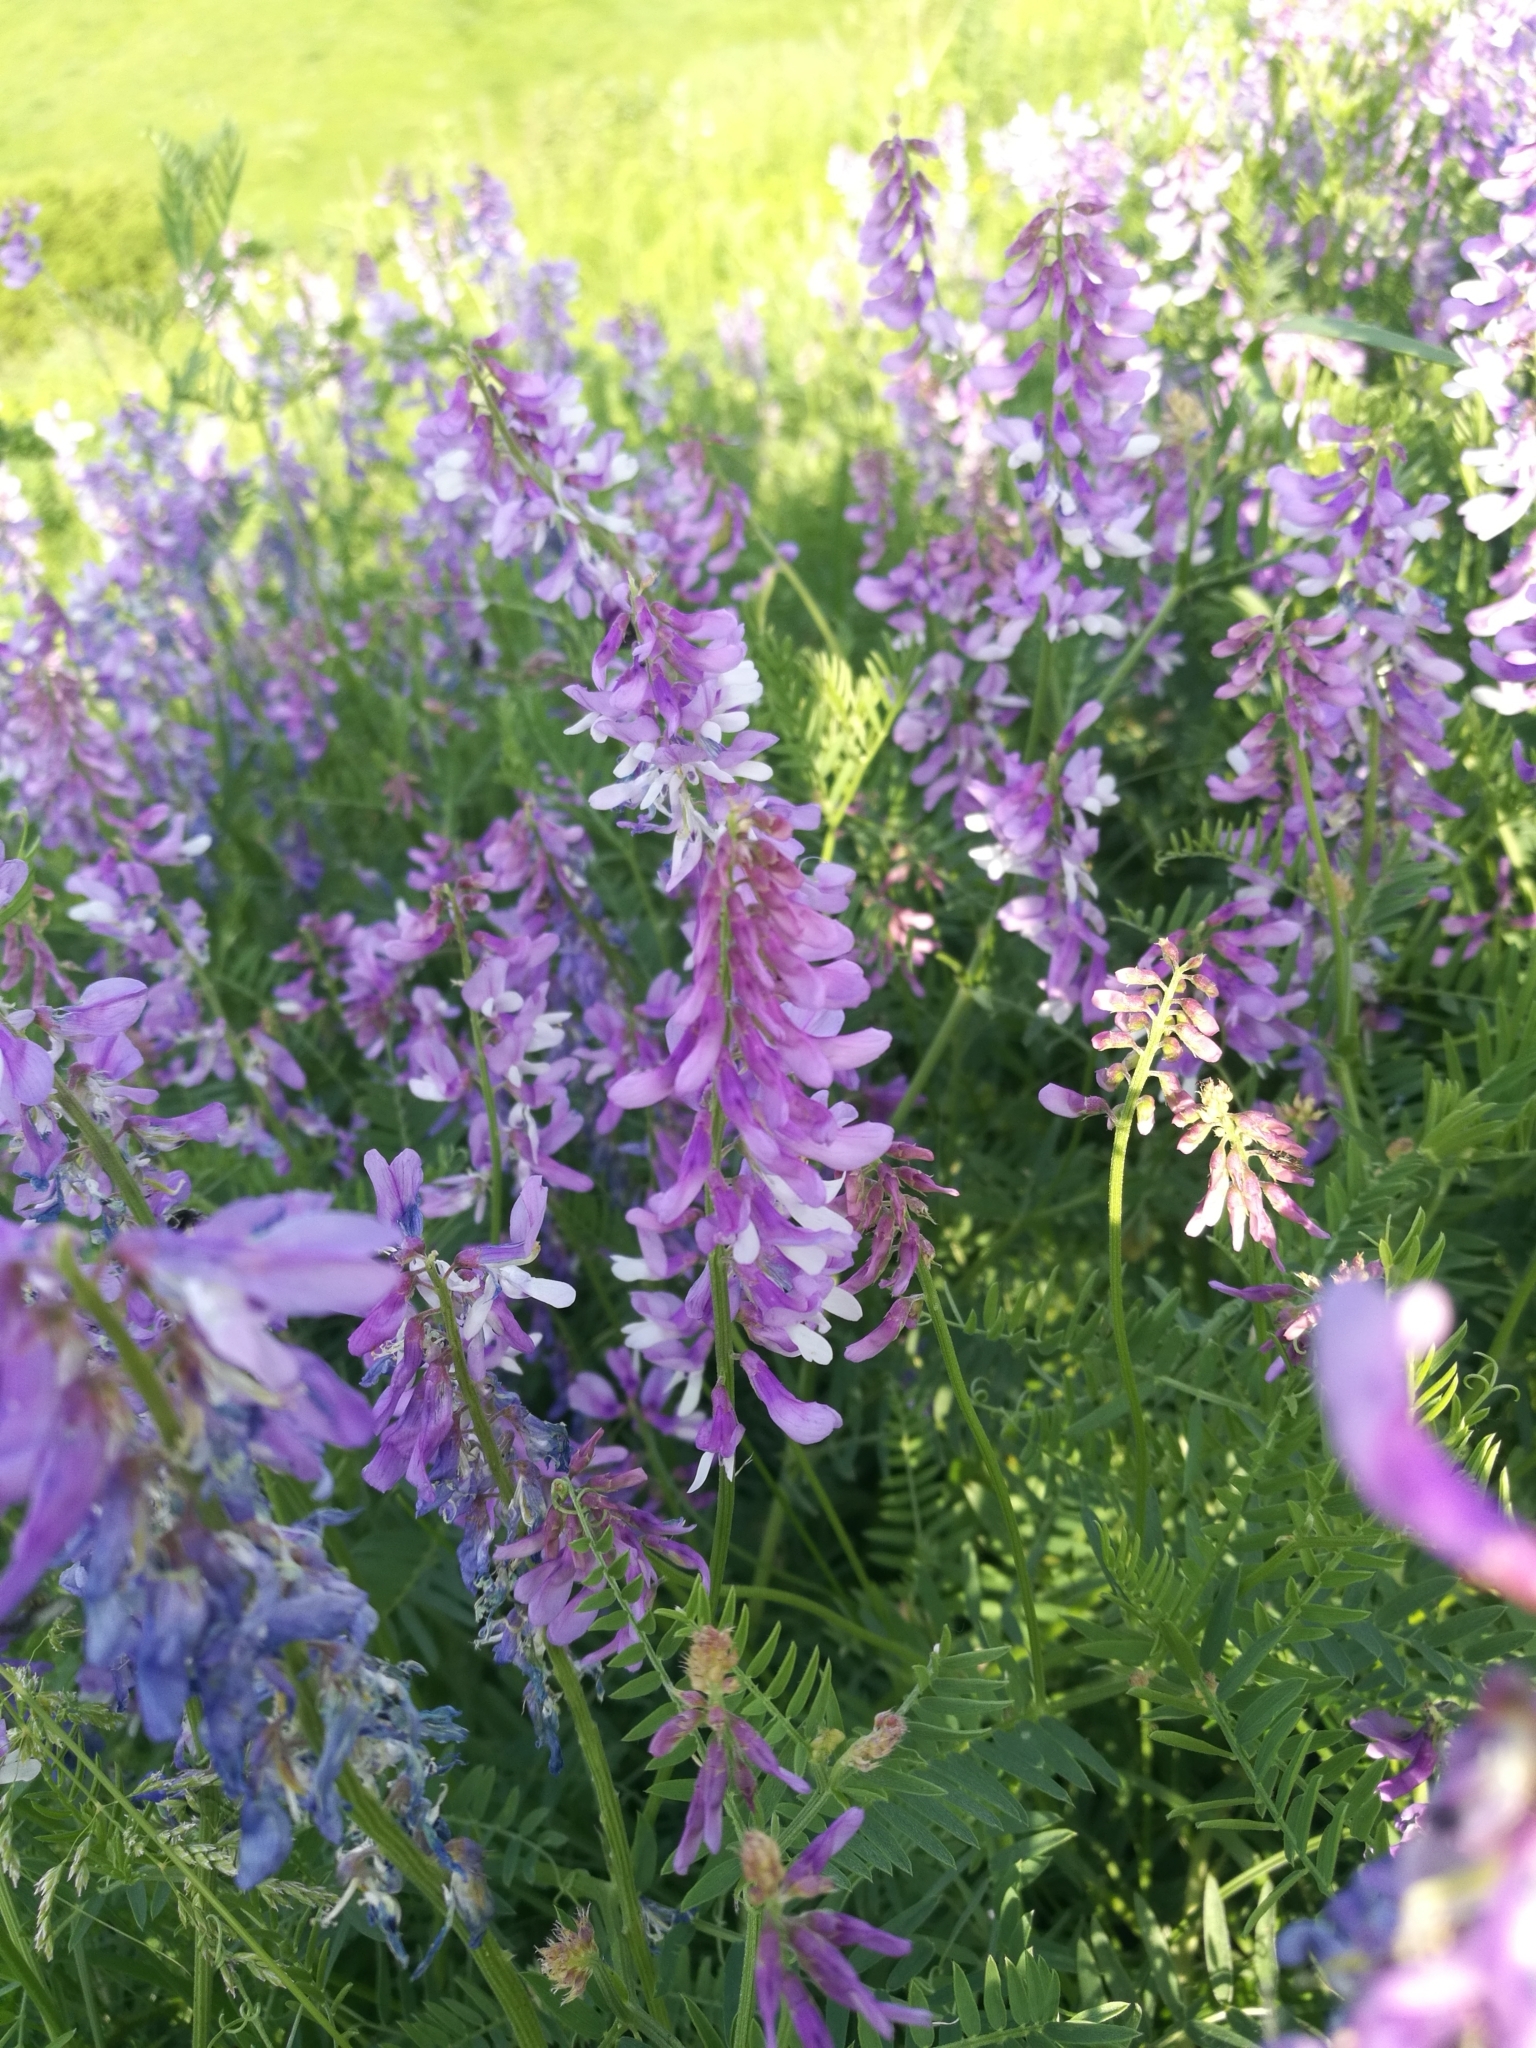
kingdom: Plantae
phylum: Tracheophyta
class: Magnoliopsida
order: Fabales
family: Fabaceae
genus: Vicia
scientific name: Vicia tenuifolia
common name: Fine-leaved vetch
